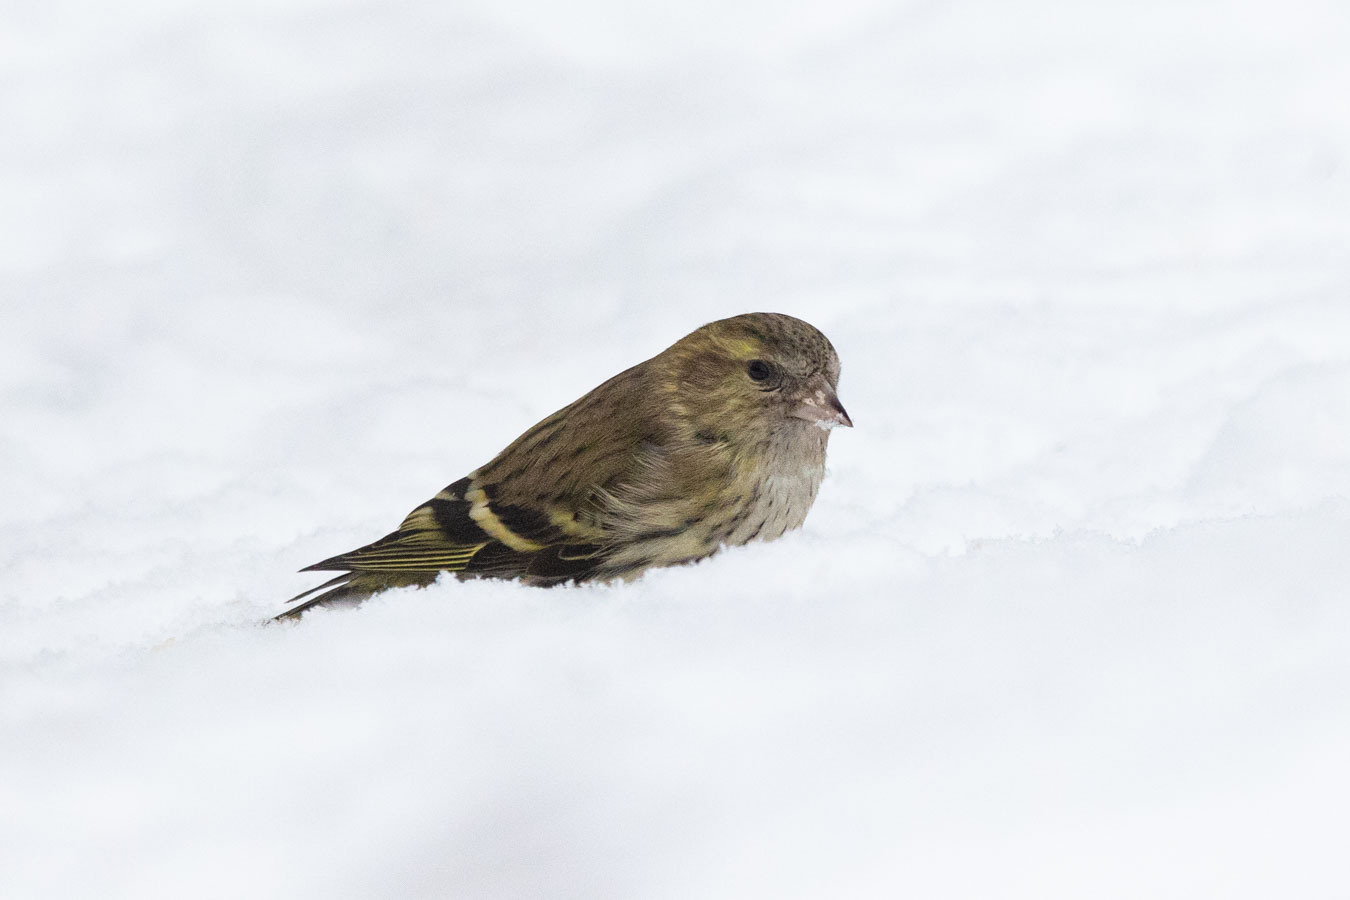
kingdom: Animalia
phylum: Chordata
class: Aves
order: Passeriformes
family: Fringillidae
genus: Spinus
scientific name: Spinus spinus
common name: Eurasian siskin
